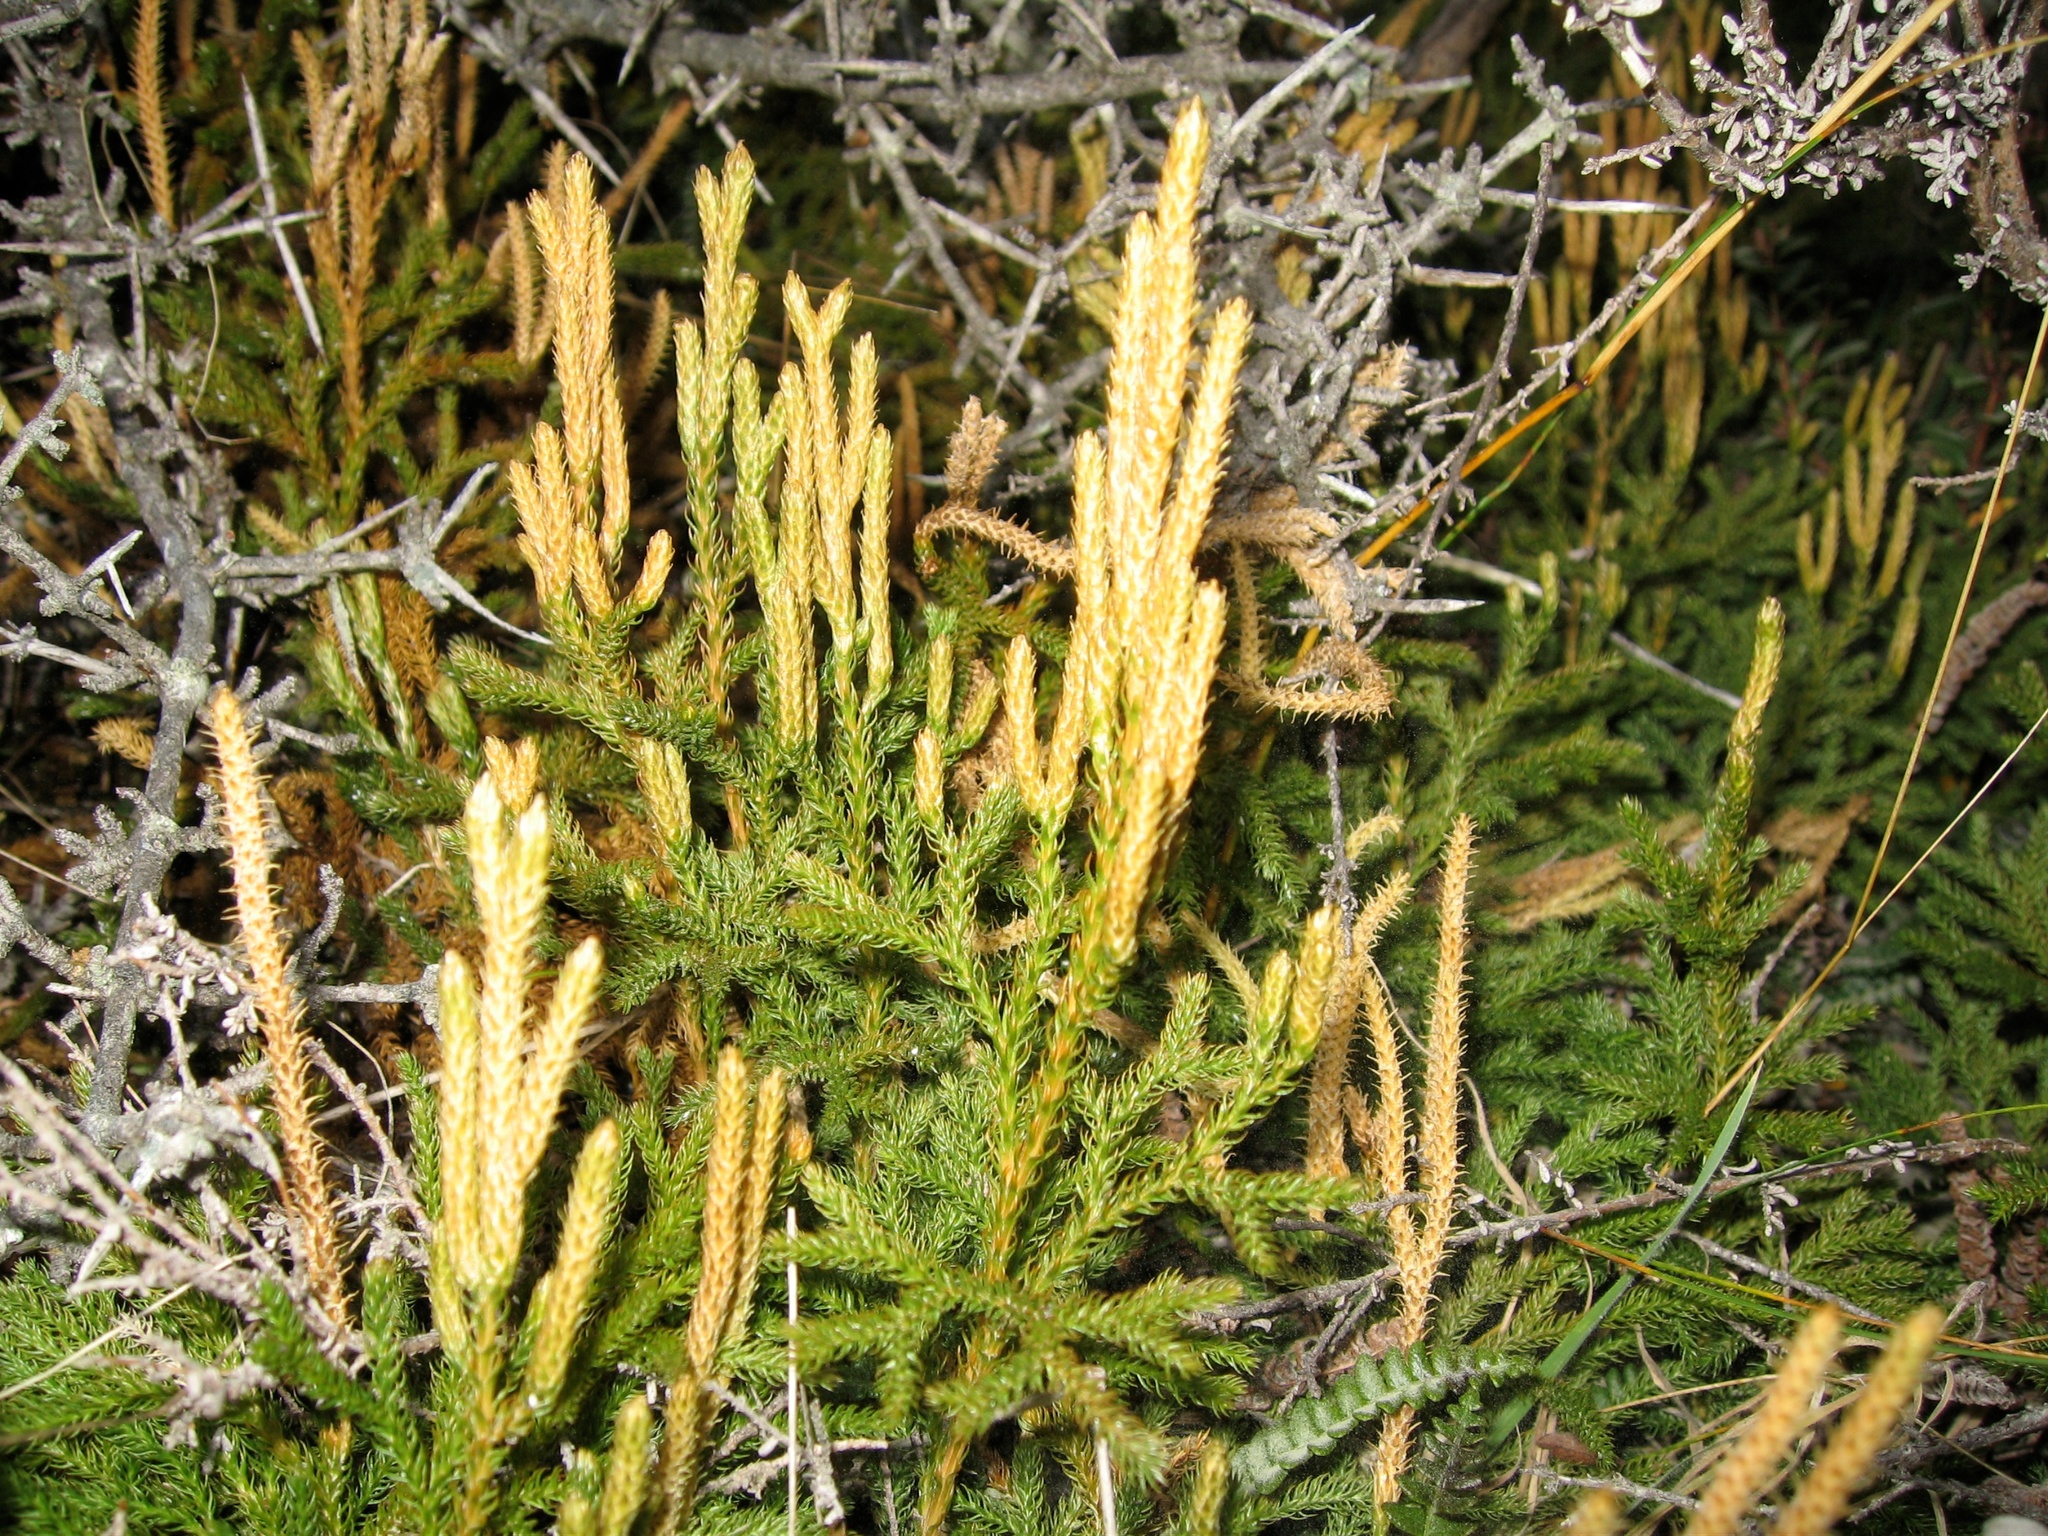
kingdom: Plantae
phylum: Tracheophyta
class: Lycopodiopsida
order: Lycopodiales
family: Lycopodiaceae
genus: Austrolycopodium
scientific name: Austrolycopodium fastigiatum
